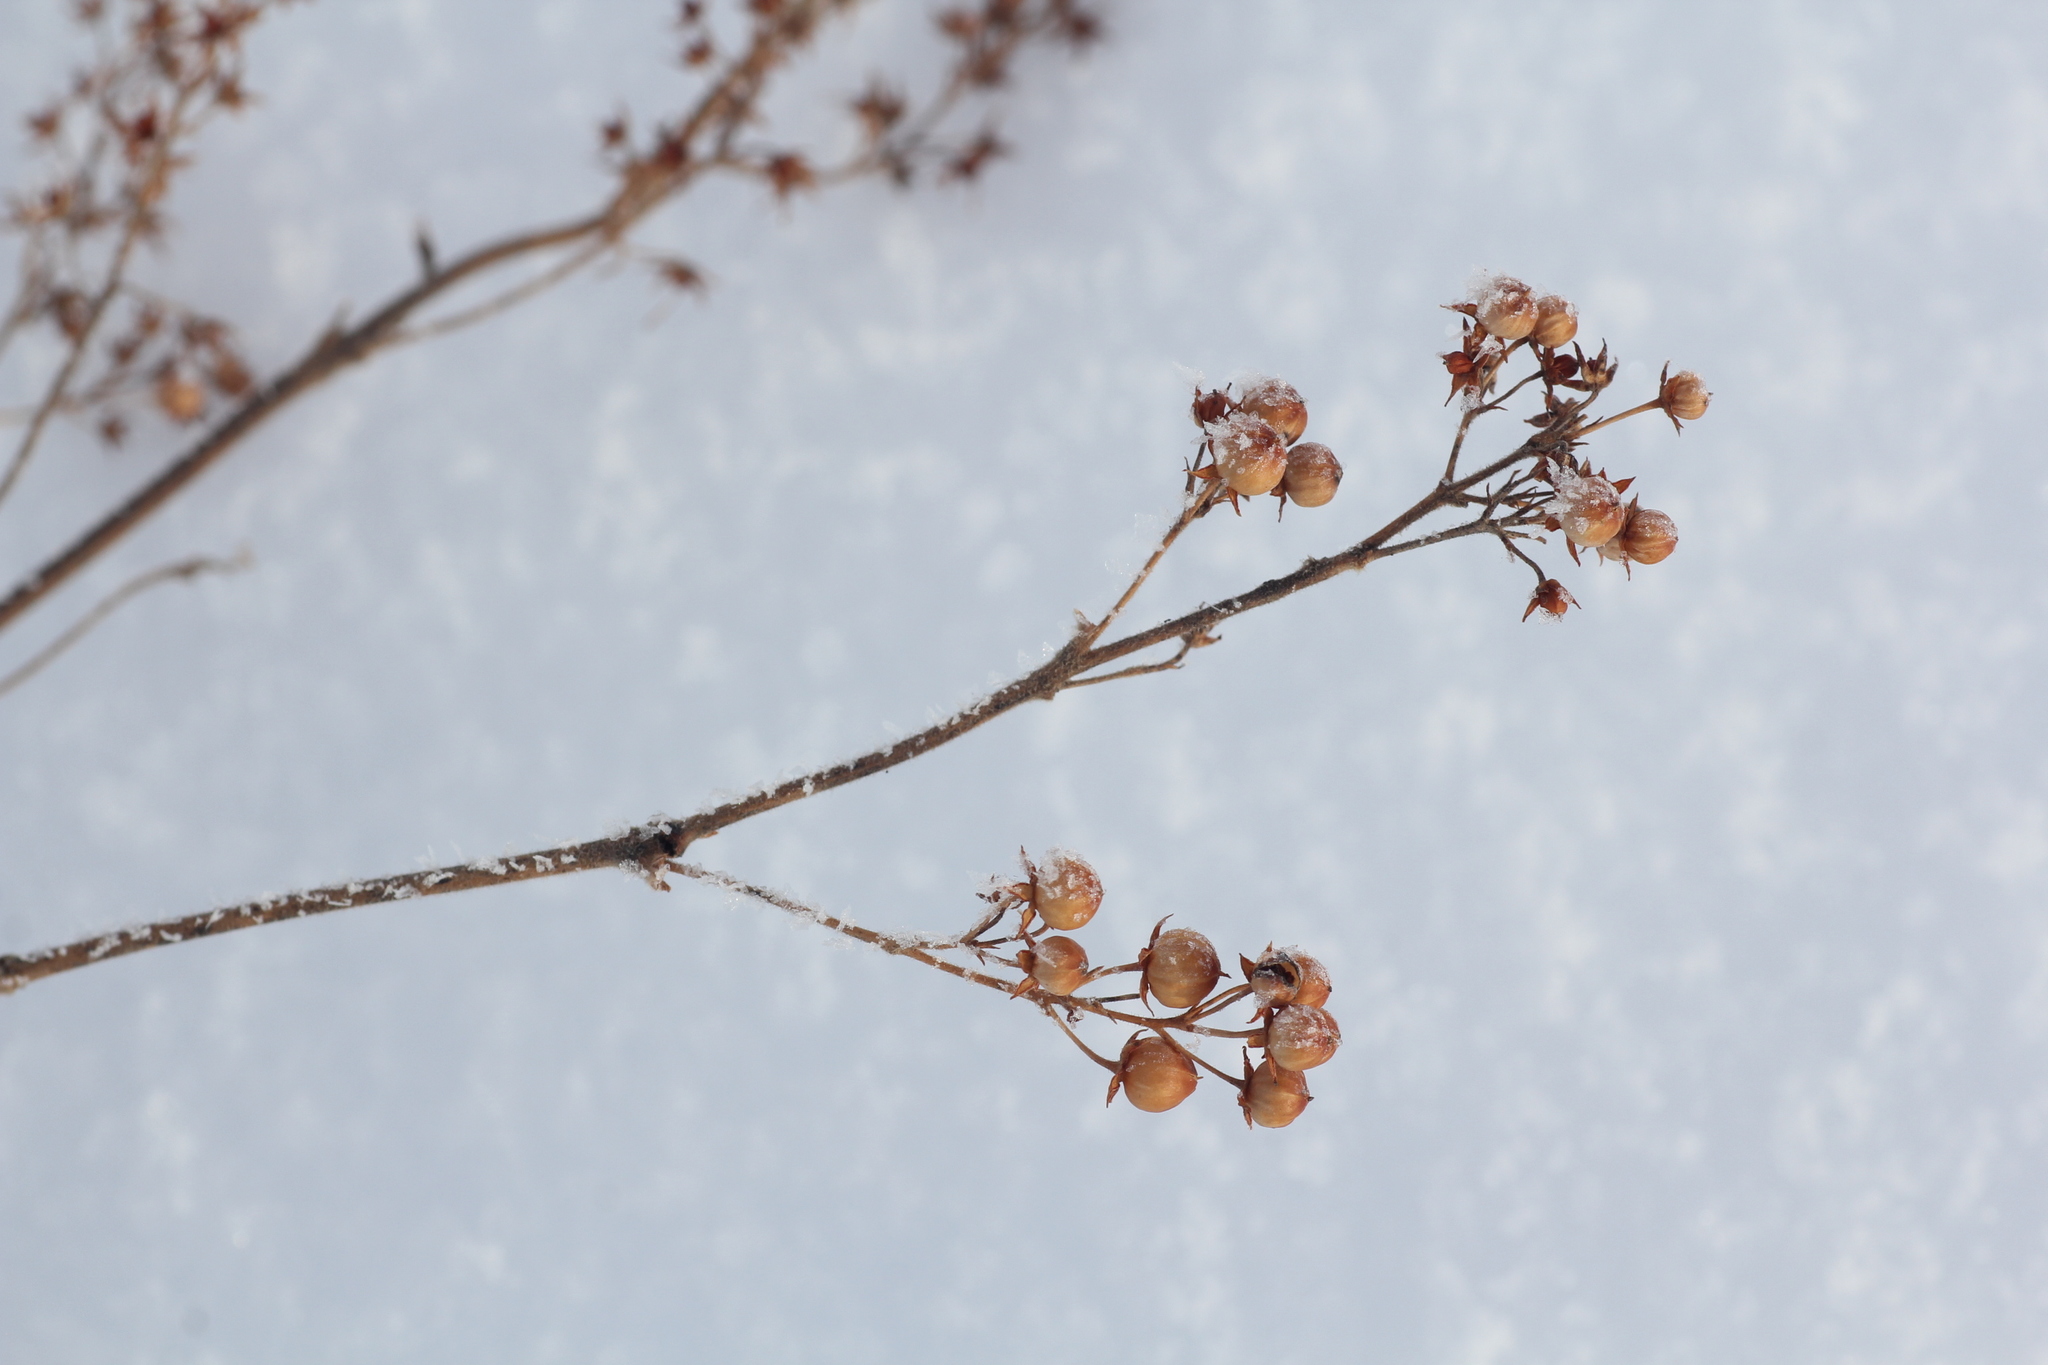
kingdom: Plantae
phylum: Tracheophyta
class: Magnoliopsida
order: Ericales
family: Primulaceae
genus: Lysimachia
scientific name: Lysimachia vulgaris
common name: Yellow loosestrife
